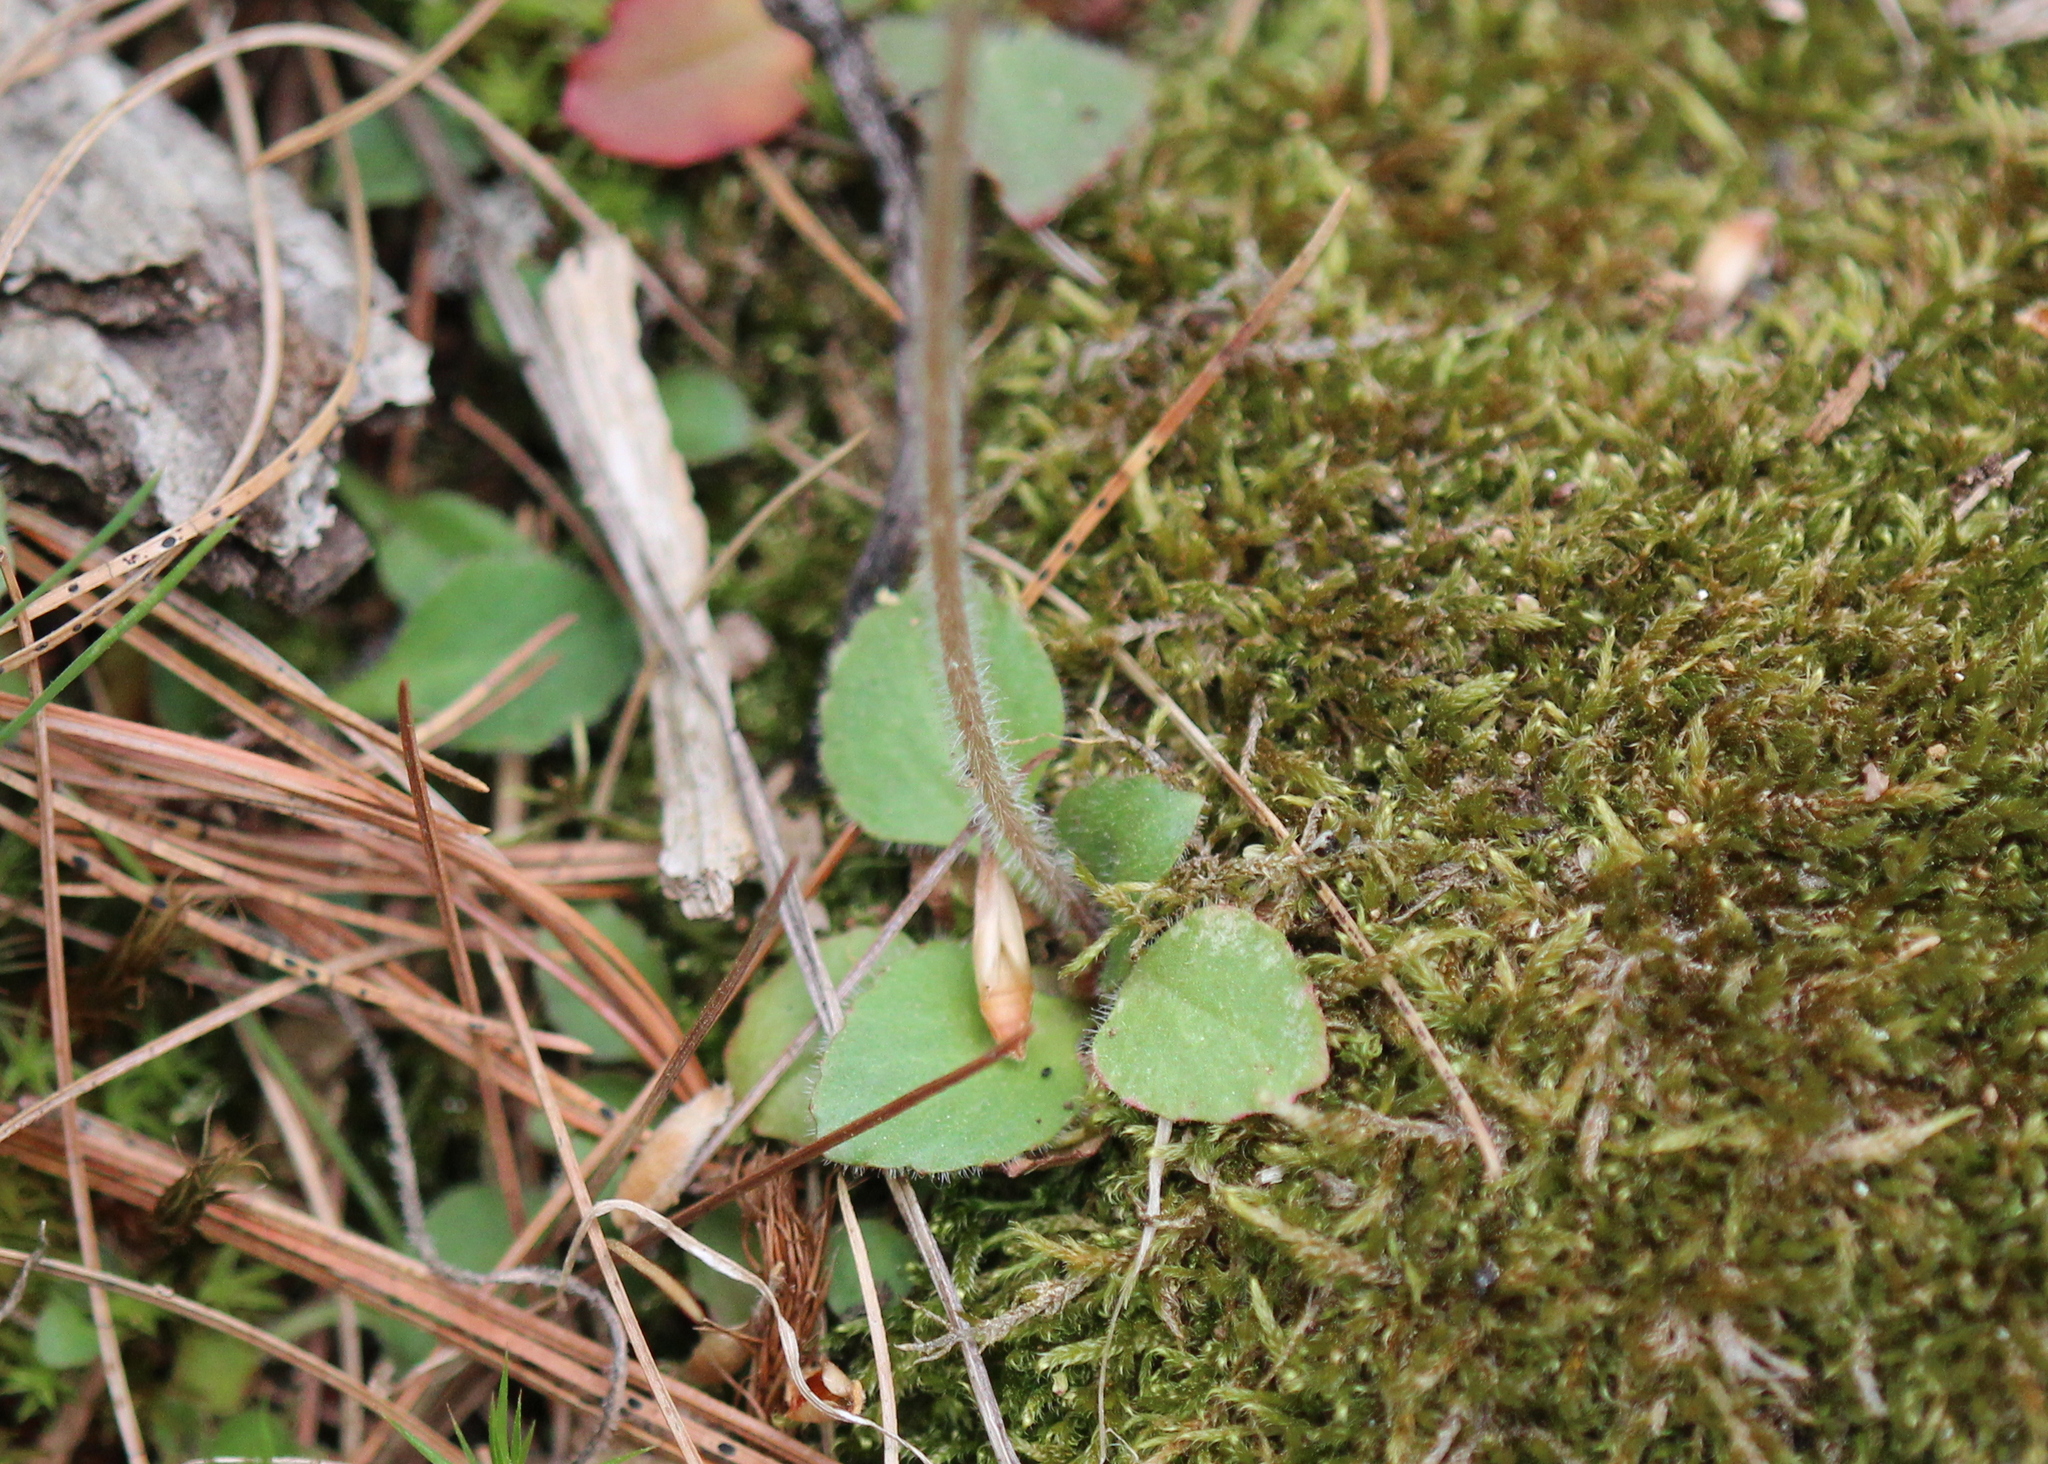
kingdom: Plantae
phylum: Tracheophyta
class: Magnoliopsida
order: Saxifragales
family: Saxifragaceae
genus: Micranthes
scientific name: Micranthes virginiensis
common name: Early saxifrage
